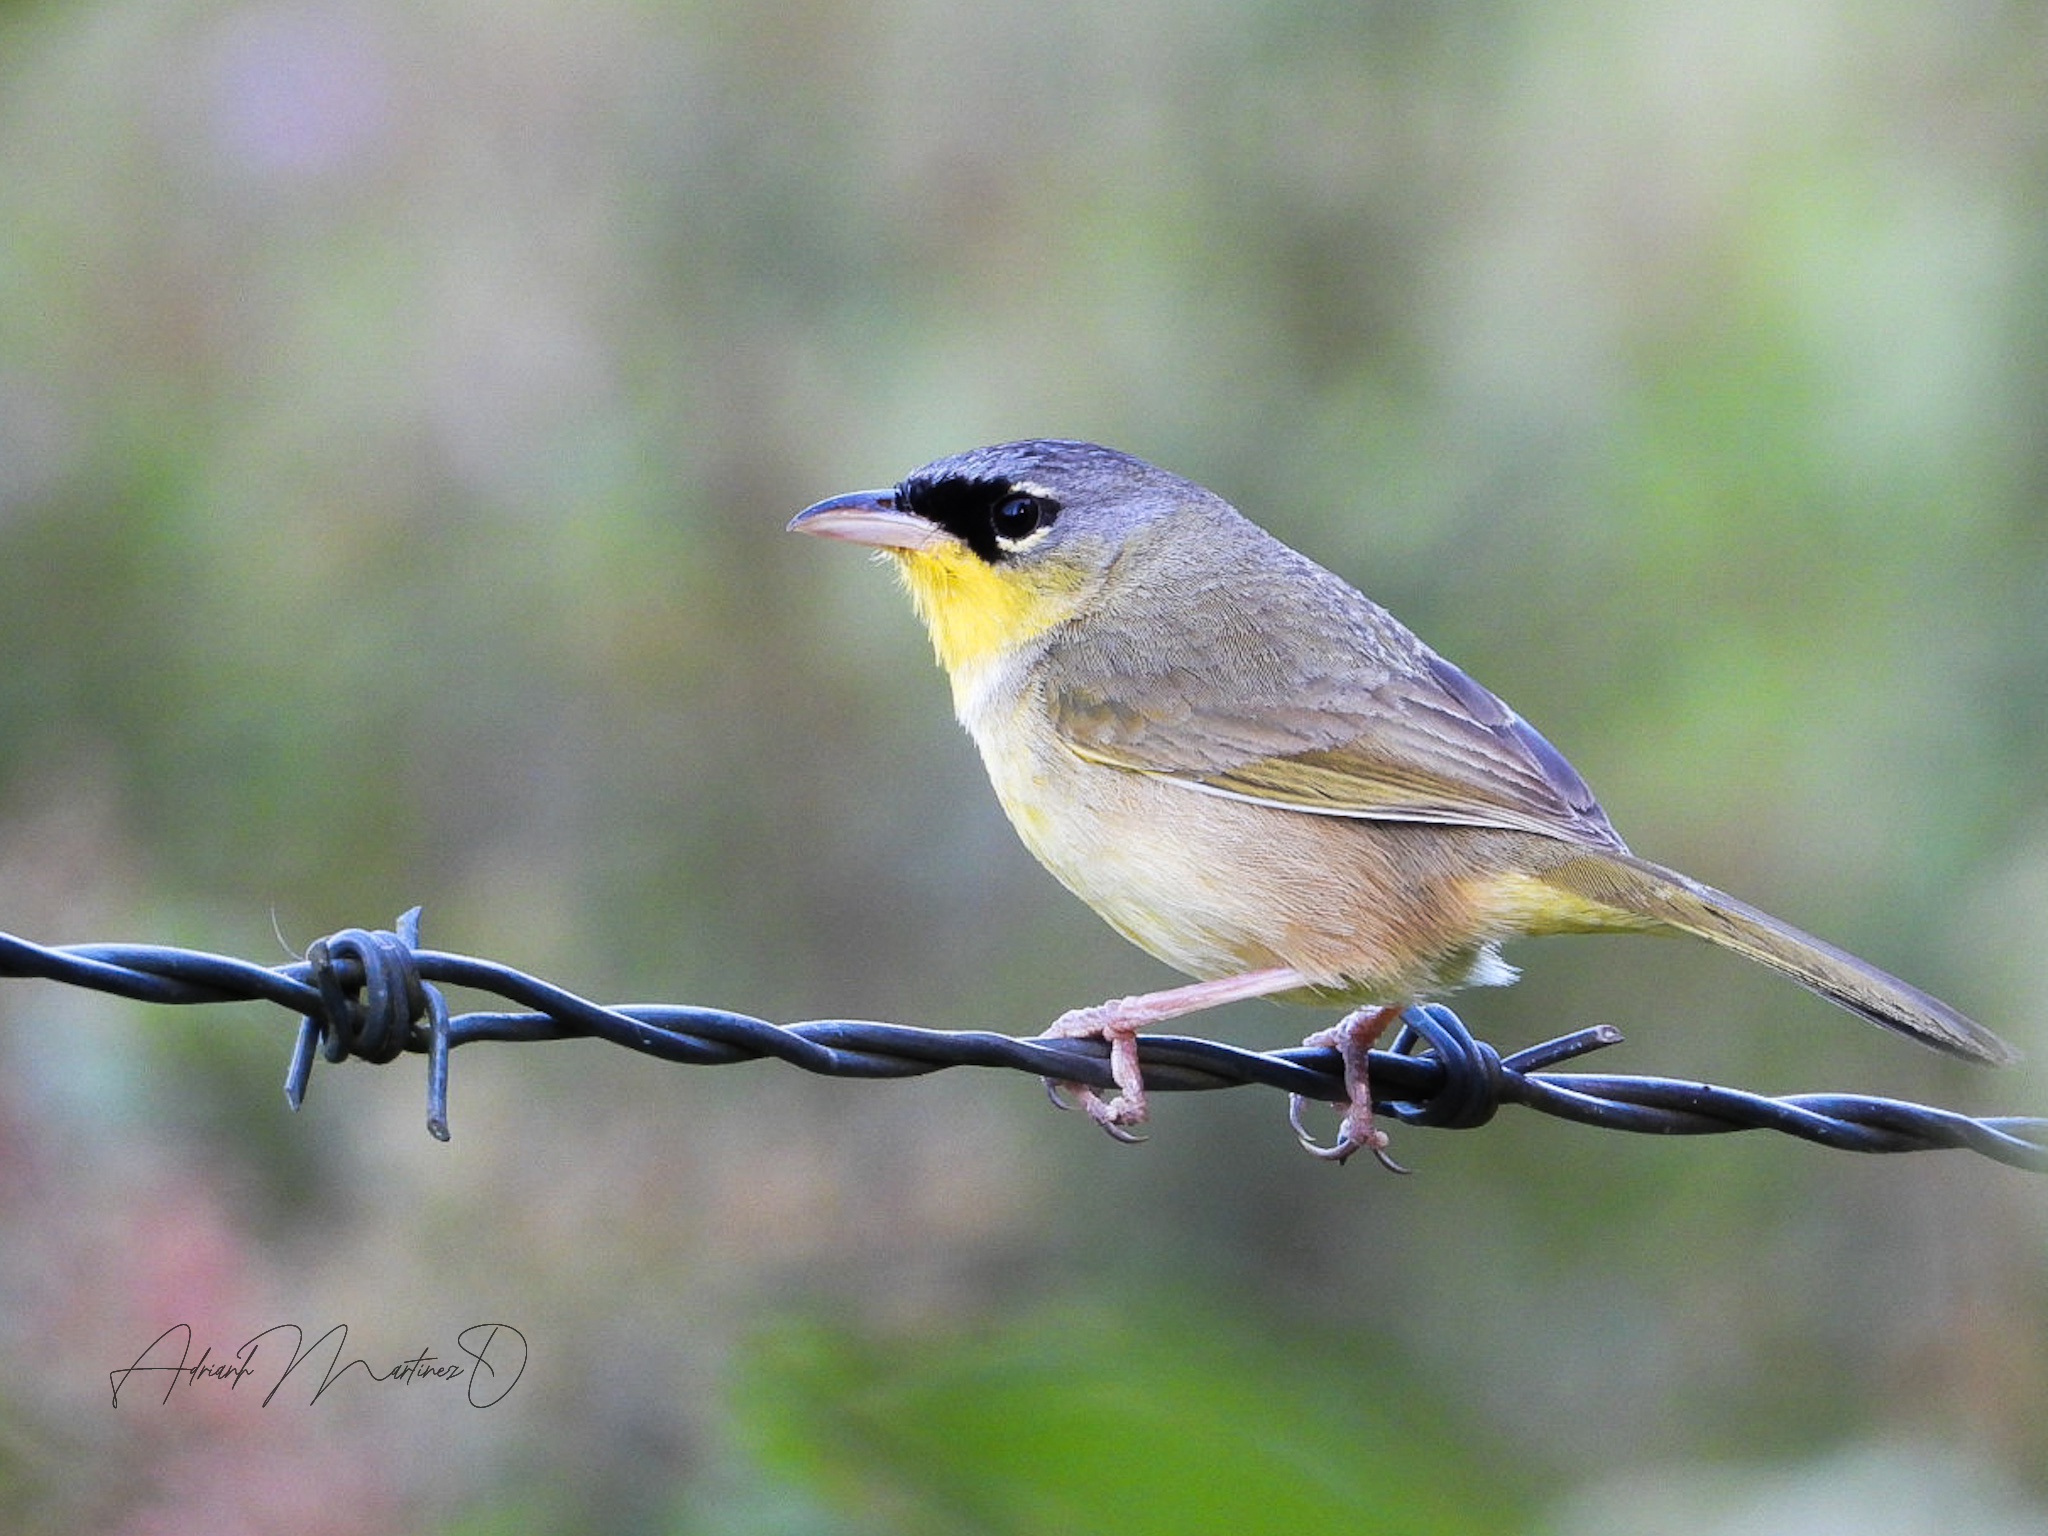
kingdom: Animalia
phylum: Chordata
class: Aves
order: Passeriformes
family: Parulidae
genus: Geothlypis
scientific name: Geothlypis poliocephala
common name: Gray-crowned yellowthroat
